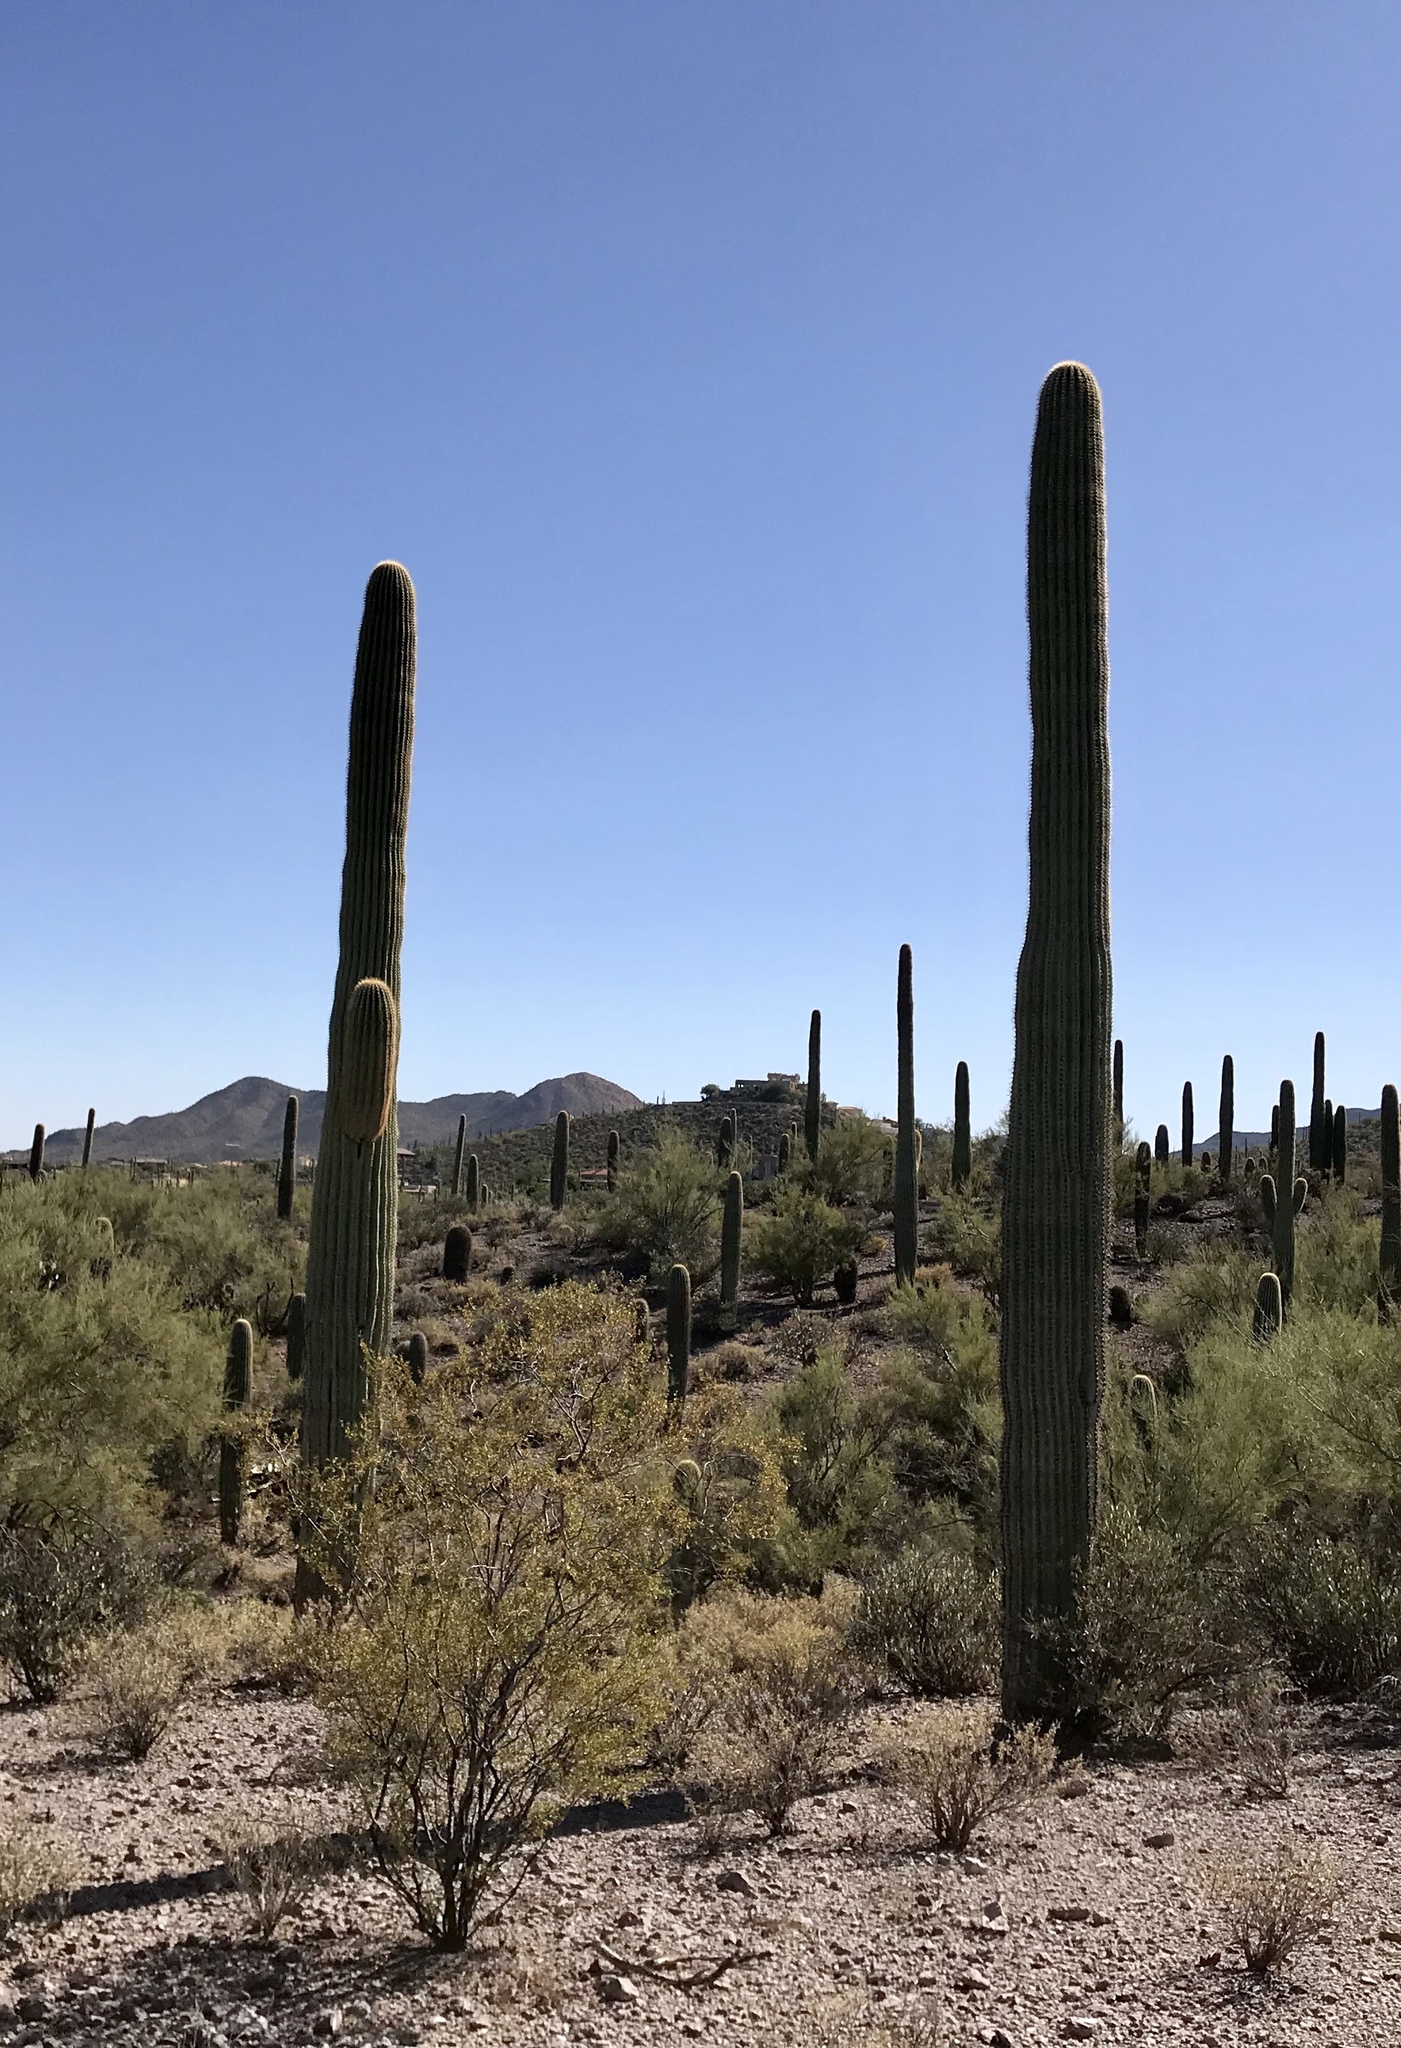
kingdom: Plantae
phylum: Tracheophyta
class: Magnoliopsida
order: Caryophyllales
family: Cactaceae
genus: Carnegiea
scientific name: Carnegiea gigantea
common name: Saguaro
